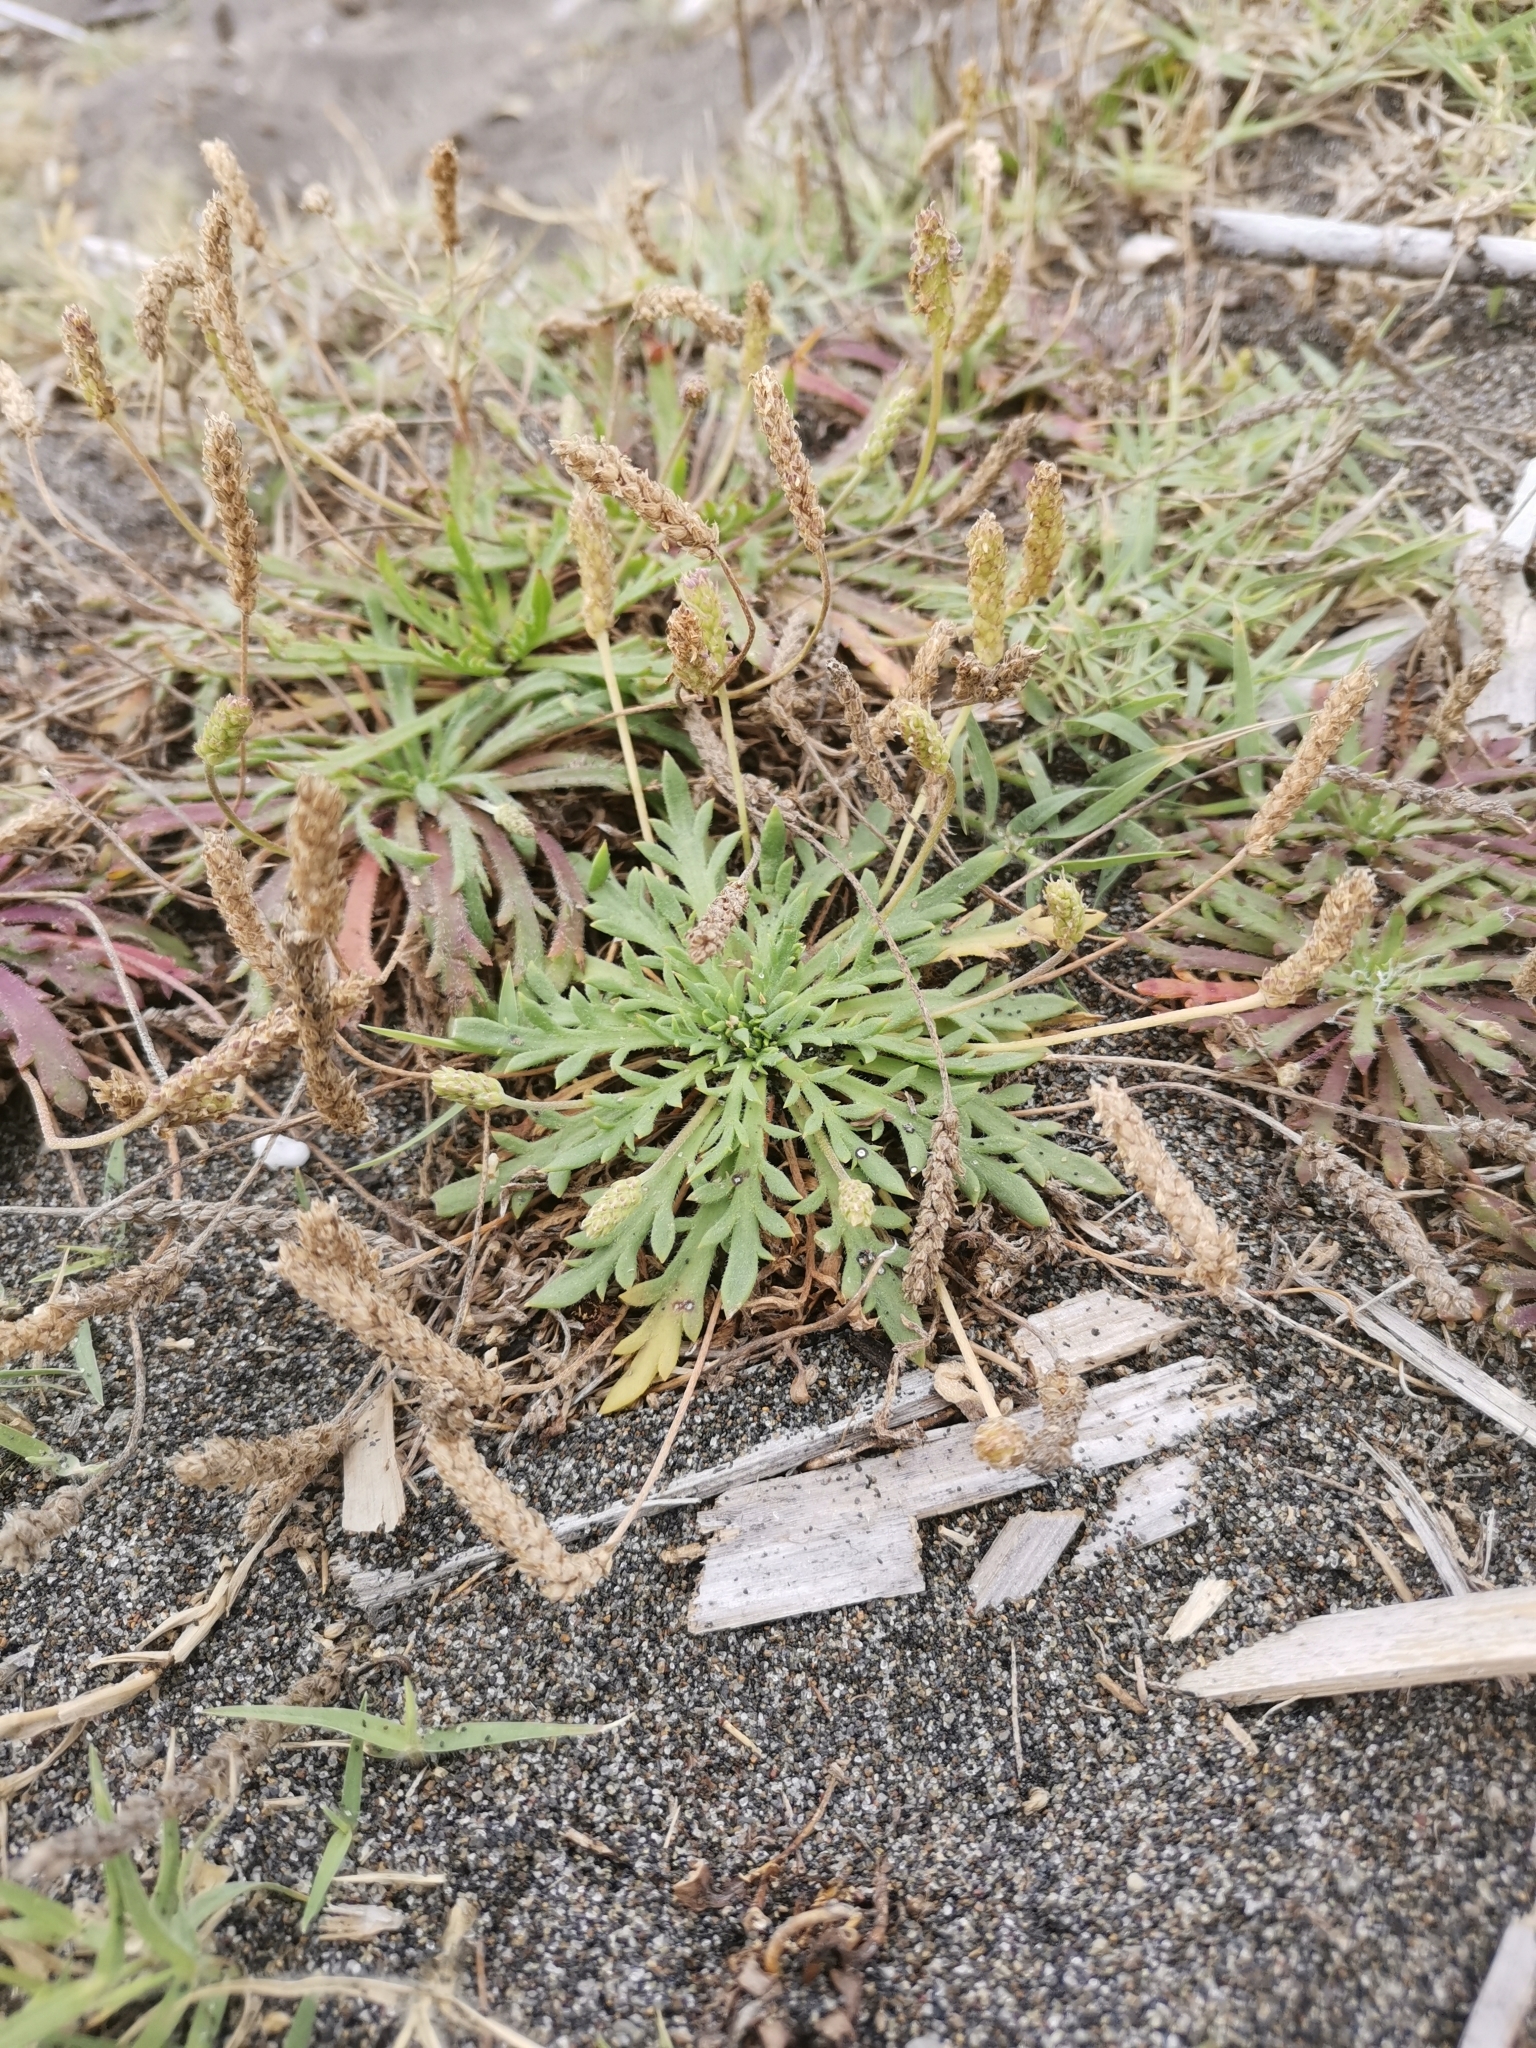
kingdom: Plantae
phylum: Tracheophyta
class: Magnoliopsida
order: Lamiales
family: Plantaginaceae
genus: Plantago
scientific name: Plantago coronopus
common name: Buck's-horn plantain
